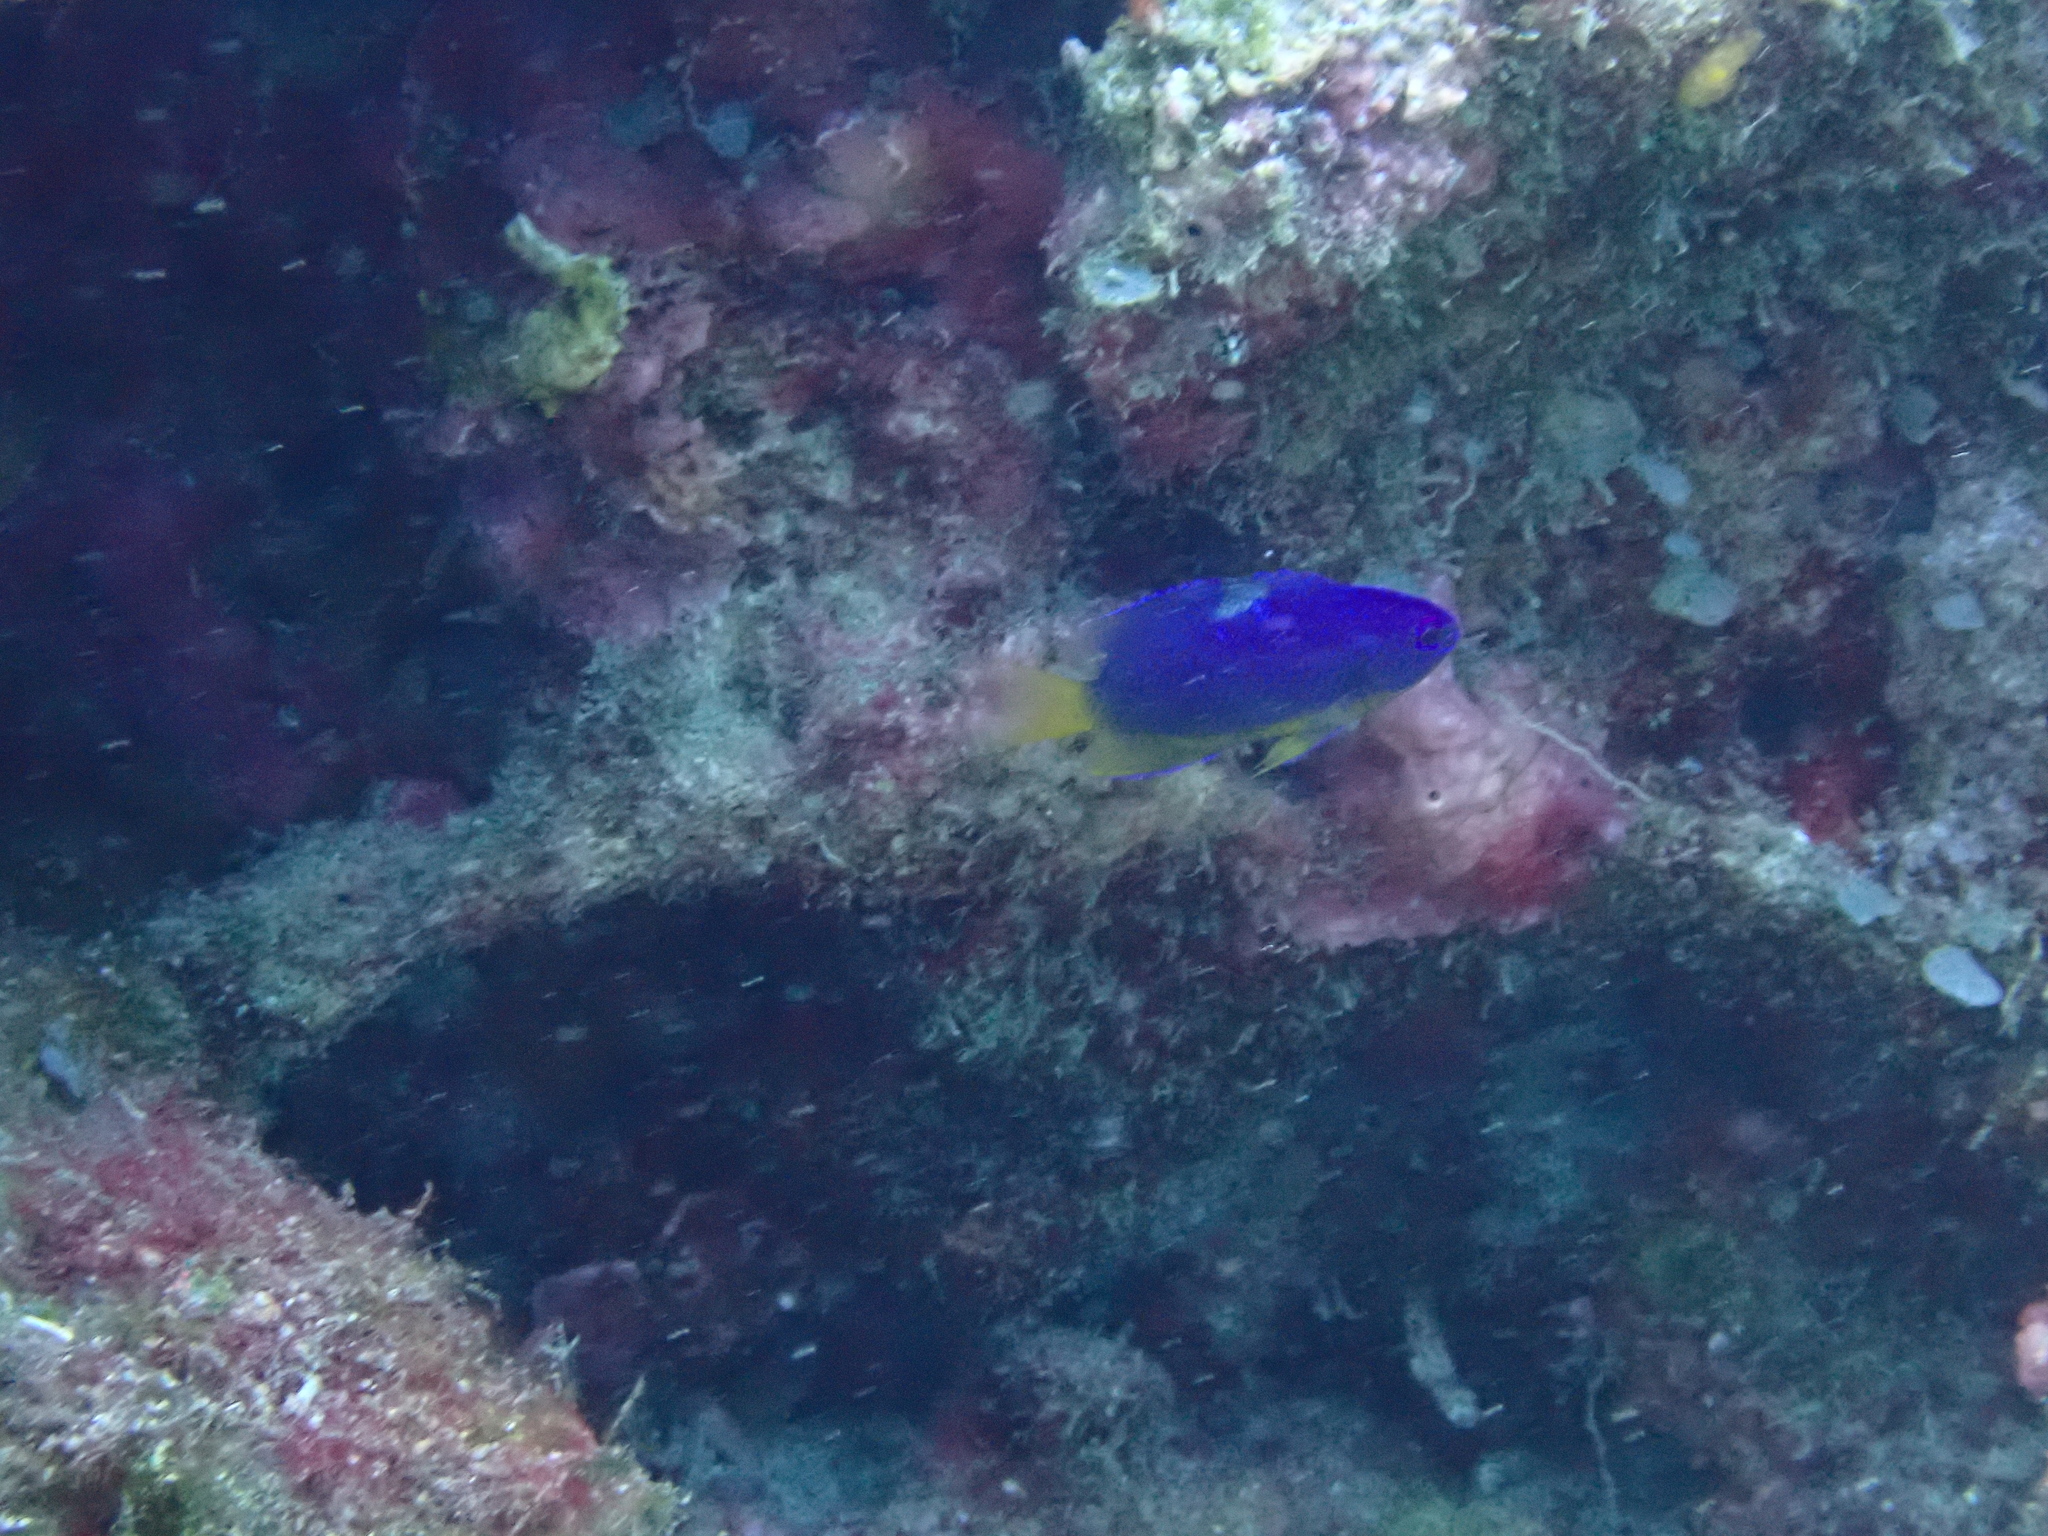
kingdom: Animalia
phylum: Chordata
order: Perciformes
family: Pomacentridae
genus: Pomacentrus
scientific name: Pomacentrus coelestis
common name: Neon damsel
